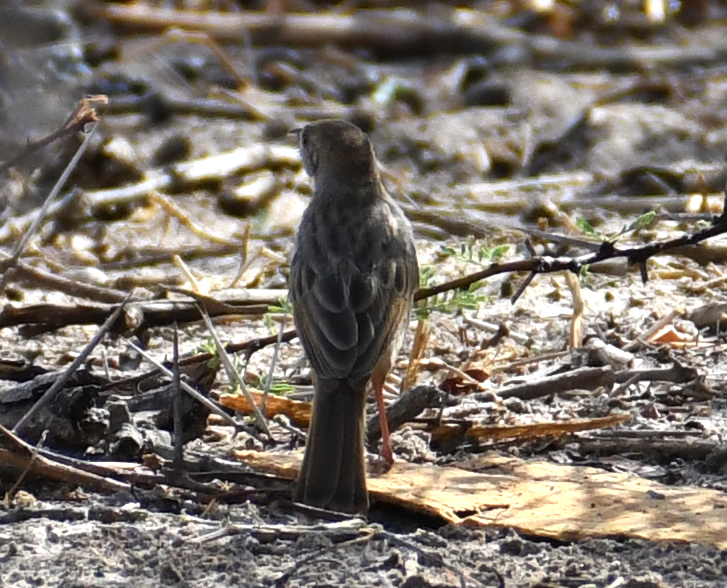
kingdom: Animalia
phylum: Chordata
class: Aves
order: Passeriformes
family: Cisticolidae
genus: Cisticola
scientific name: Cisticola chiniana
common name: Rattling cisticola
